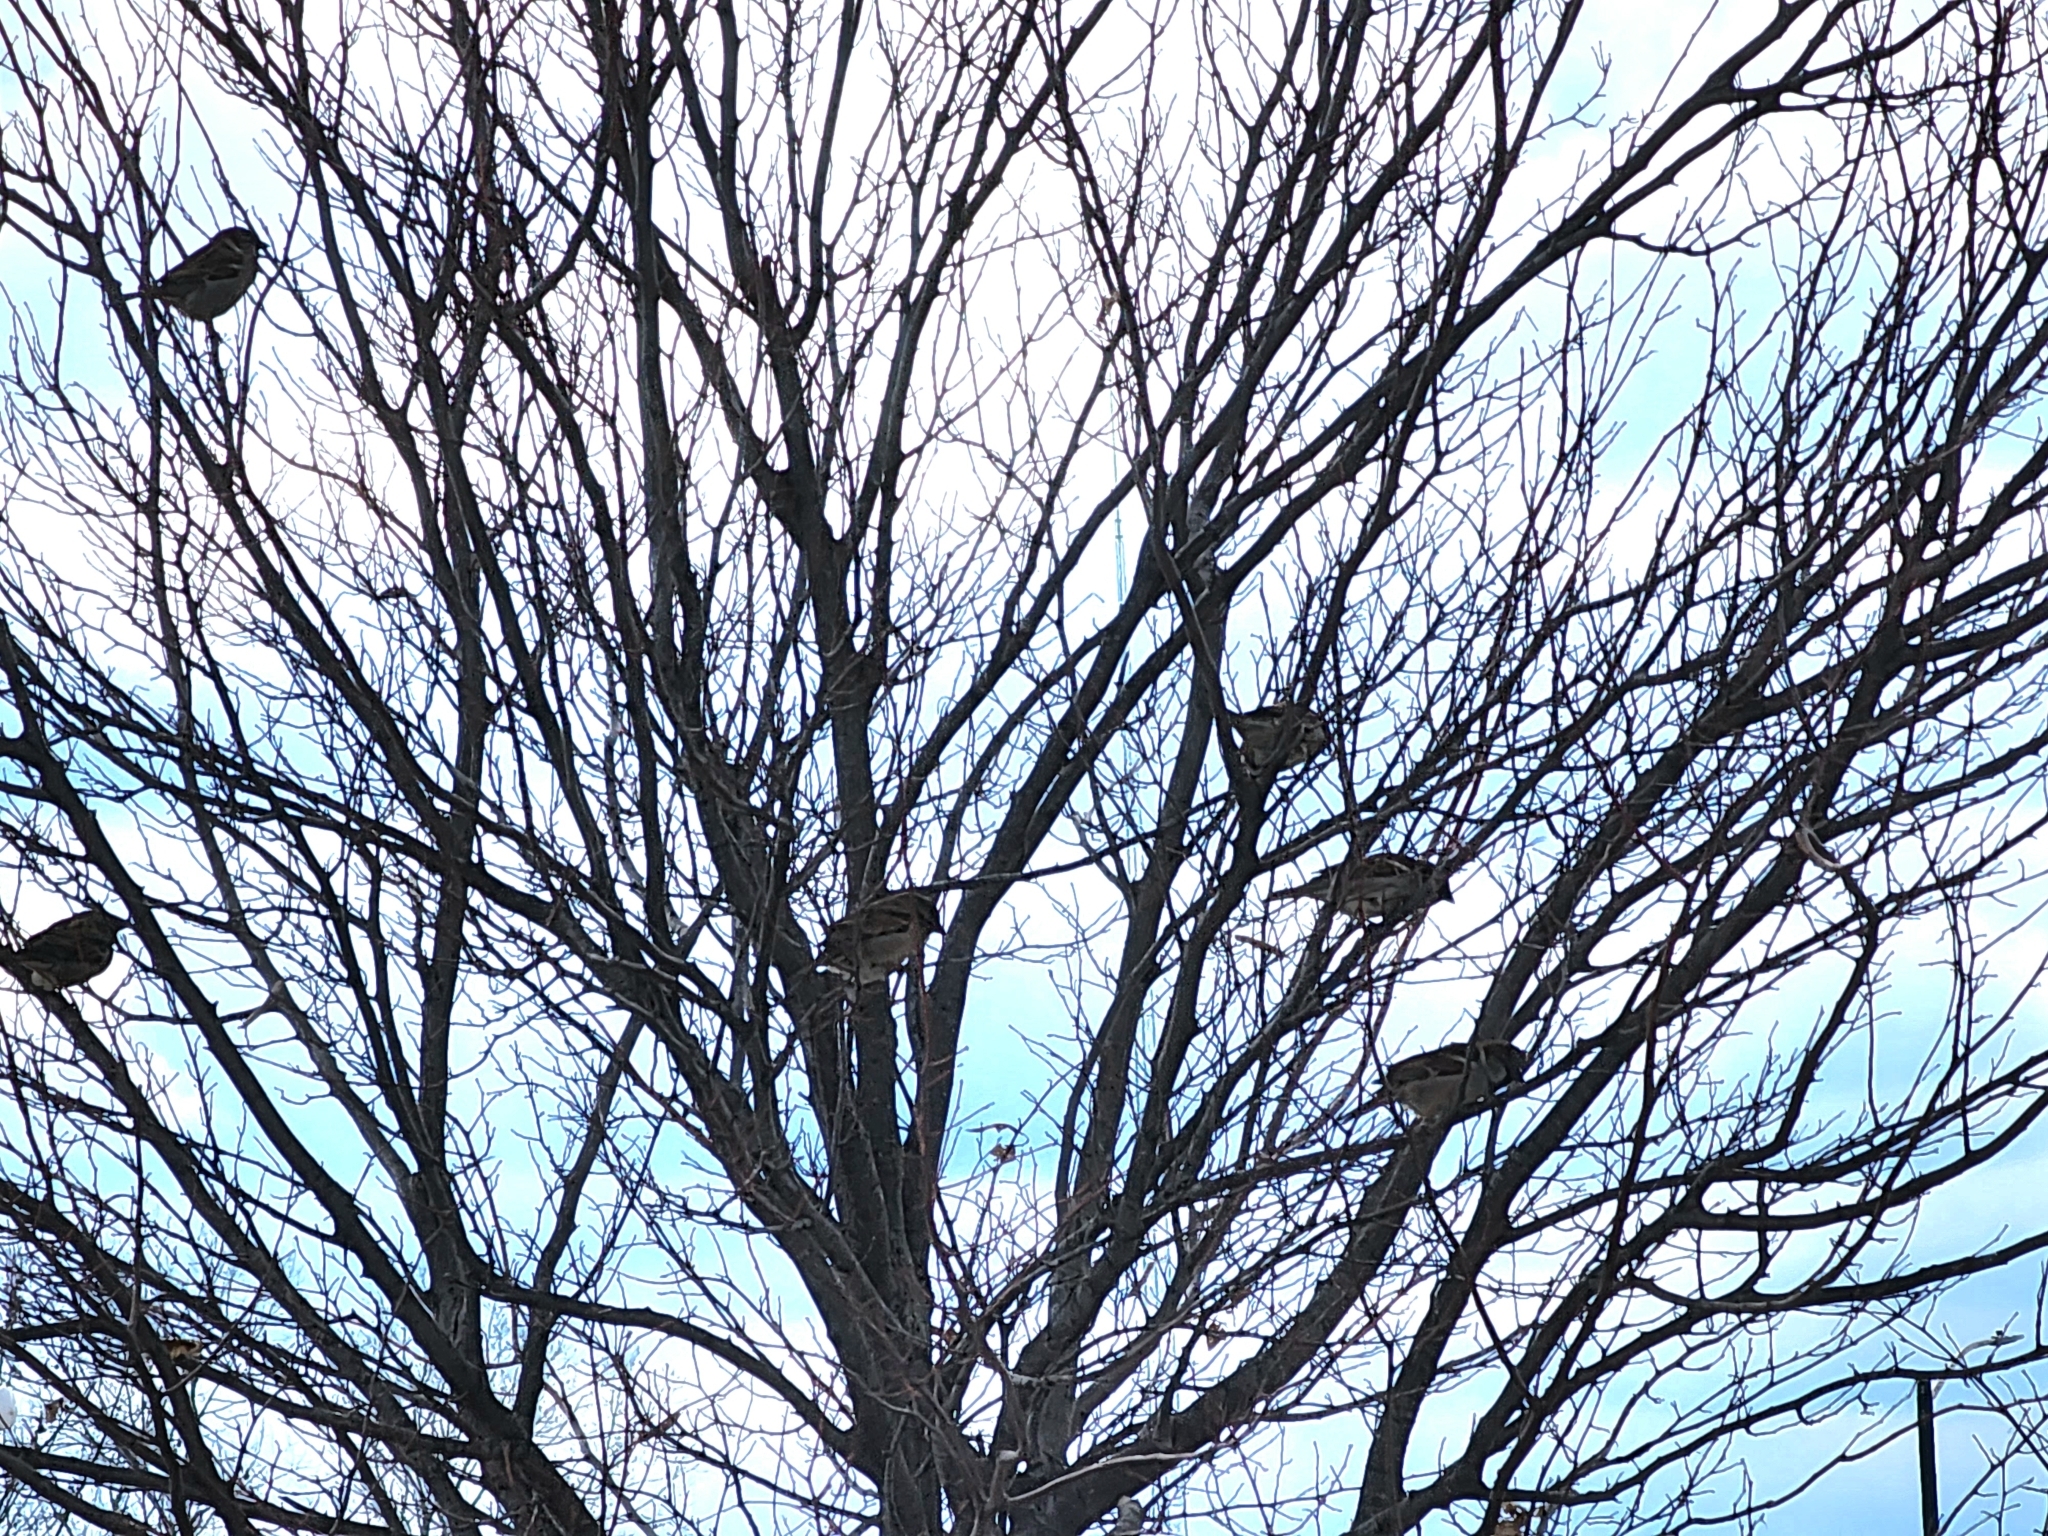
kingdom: Animalia
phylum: Chordata
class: Aves
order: Passeriformes
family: Passeridae
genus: Passer
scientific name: Passer domesticus
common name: House sparrow
